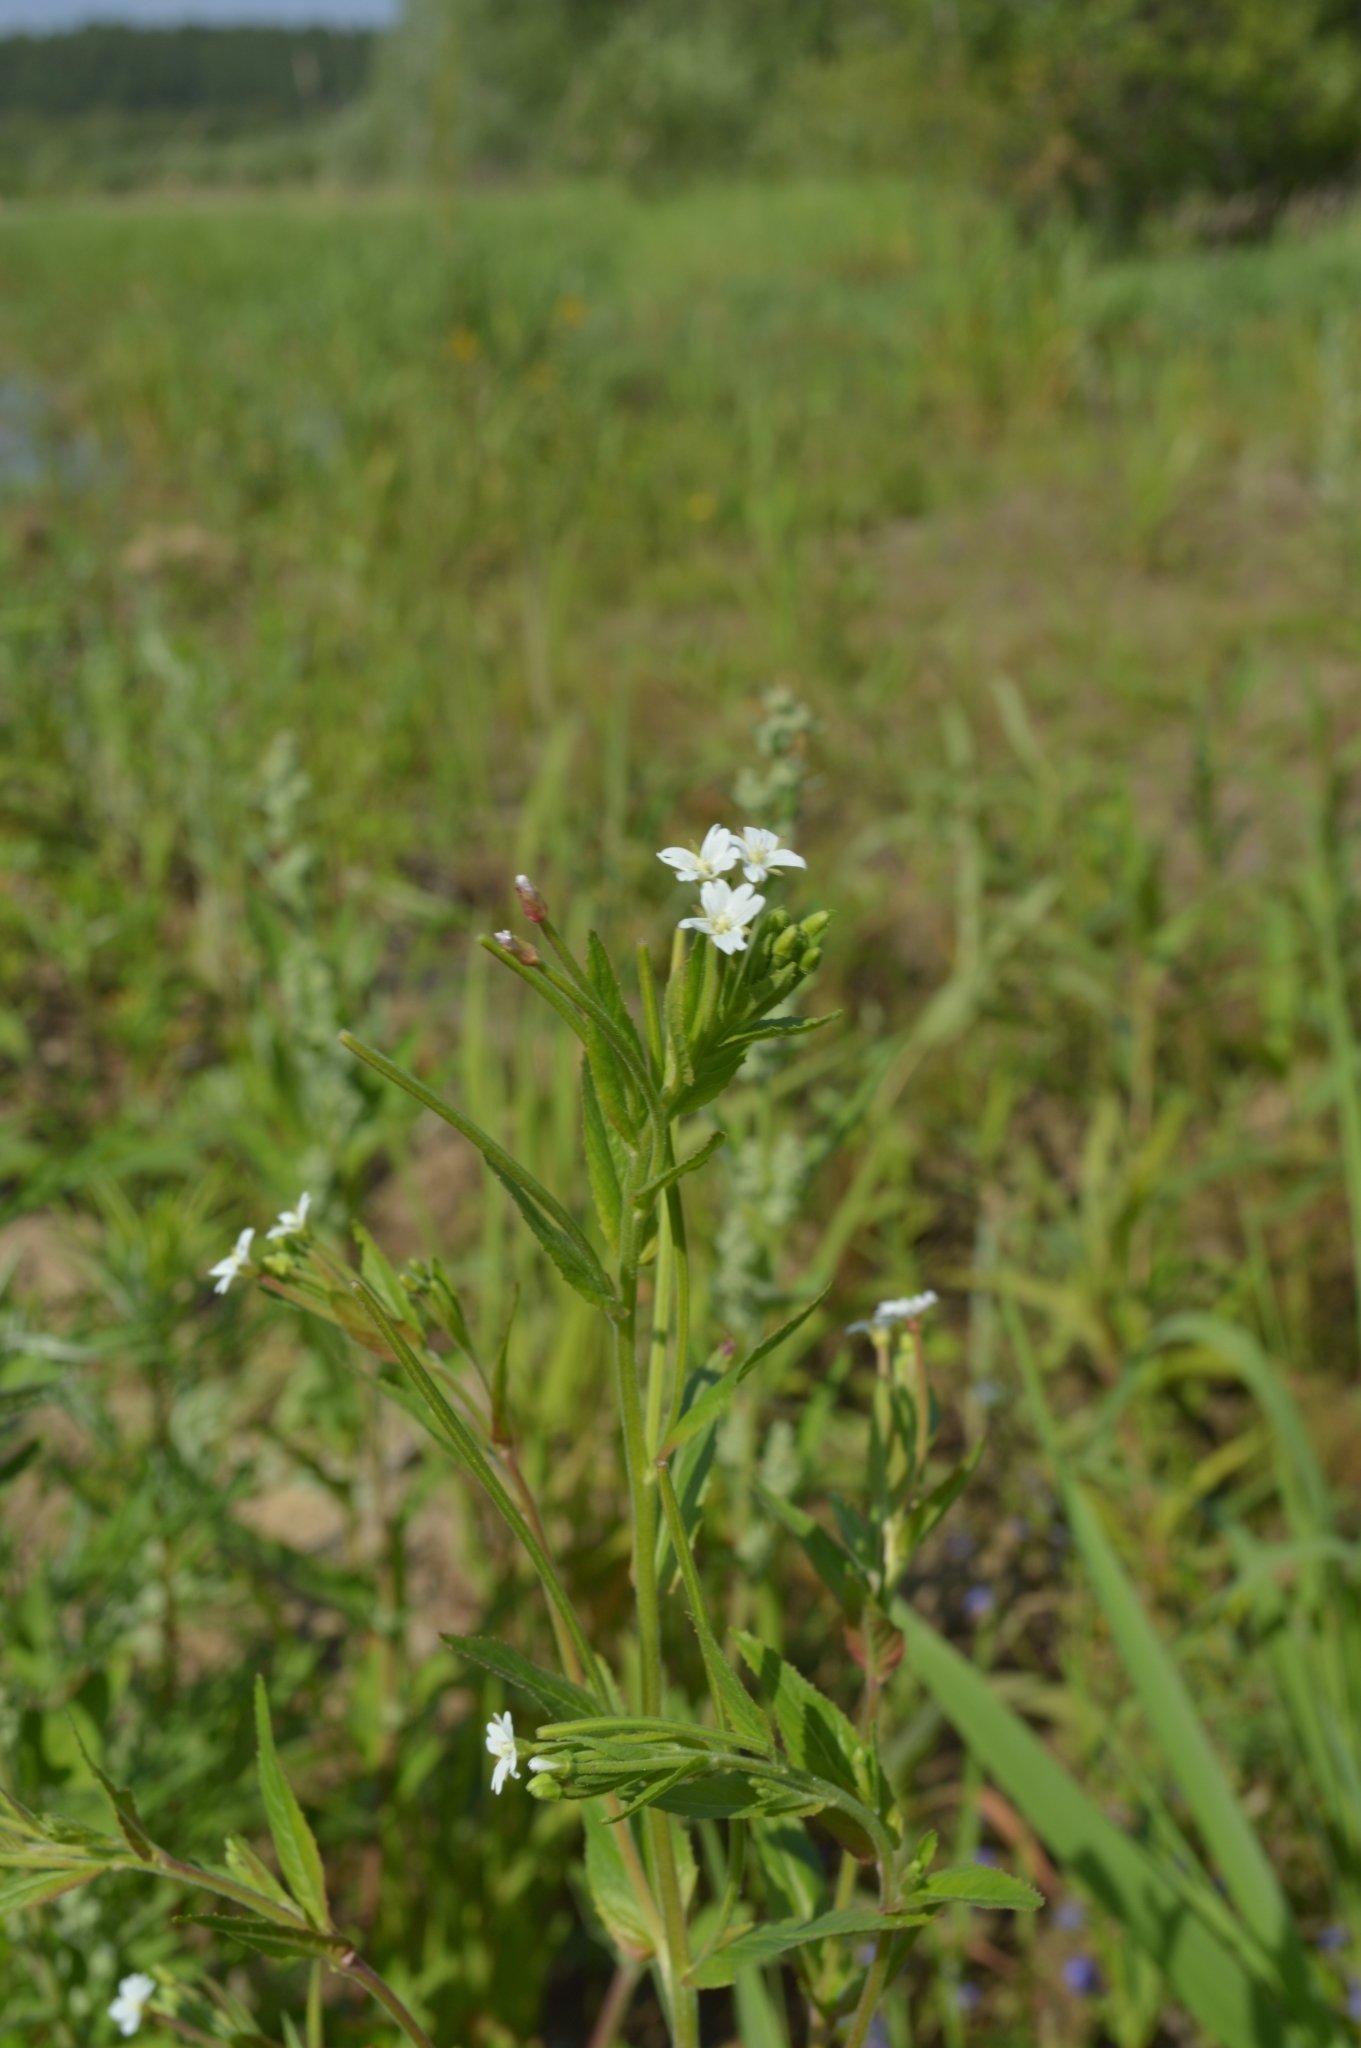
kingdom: Plantae
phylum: Tracheophyta
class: Magnoliopsida
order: Myrtales
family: Onagraceae
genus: Epilobium
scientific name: Epilobium pseudorubescens
